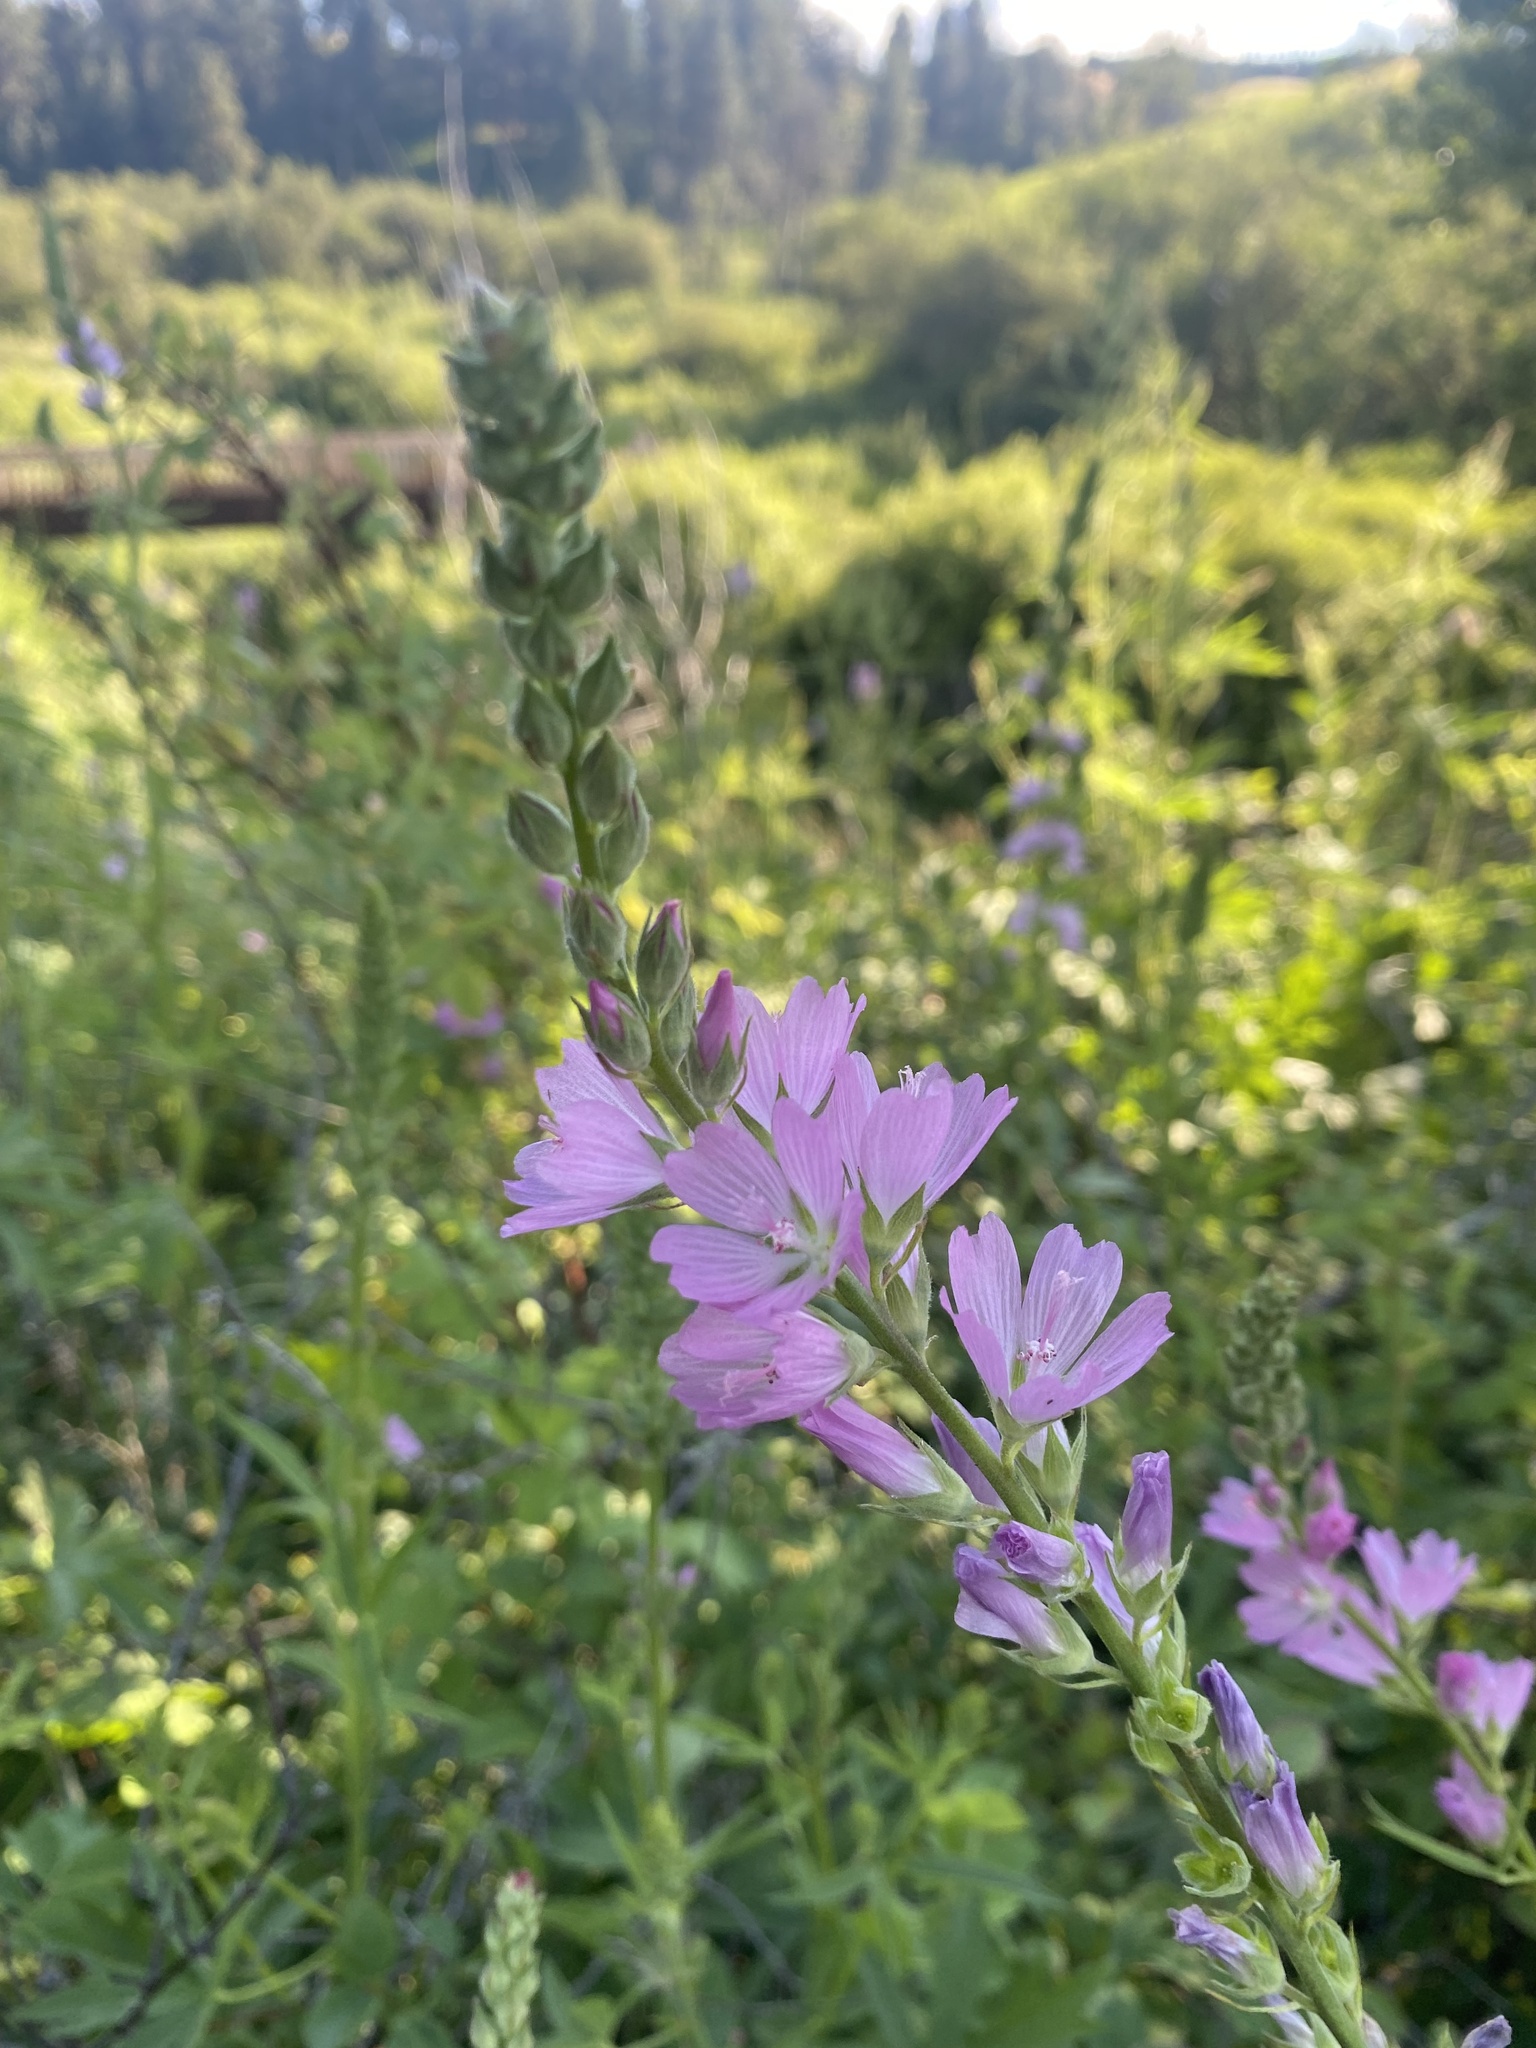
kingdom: Plantae
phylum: Tracheophyta
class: Magnoliopsida
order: Malvales
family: Malvaceae
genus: Sidalcea
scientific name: Sidalcea oregana
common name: Oregon checker-mallow
